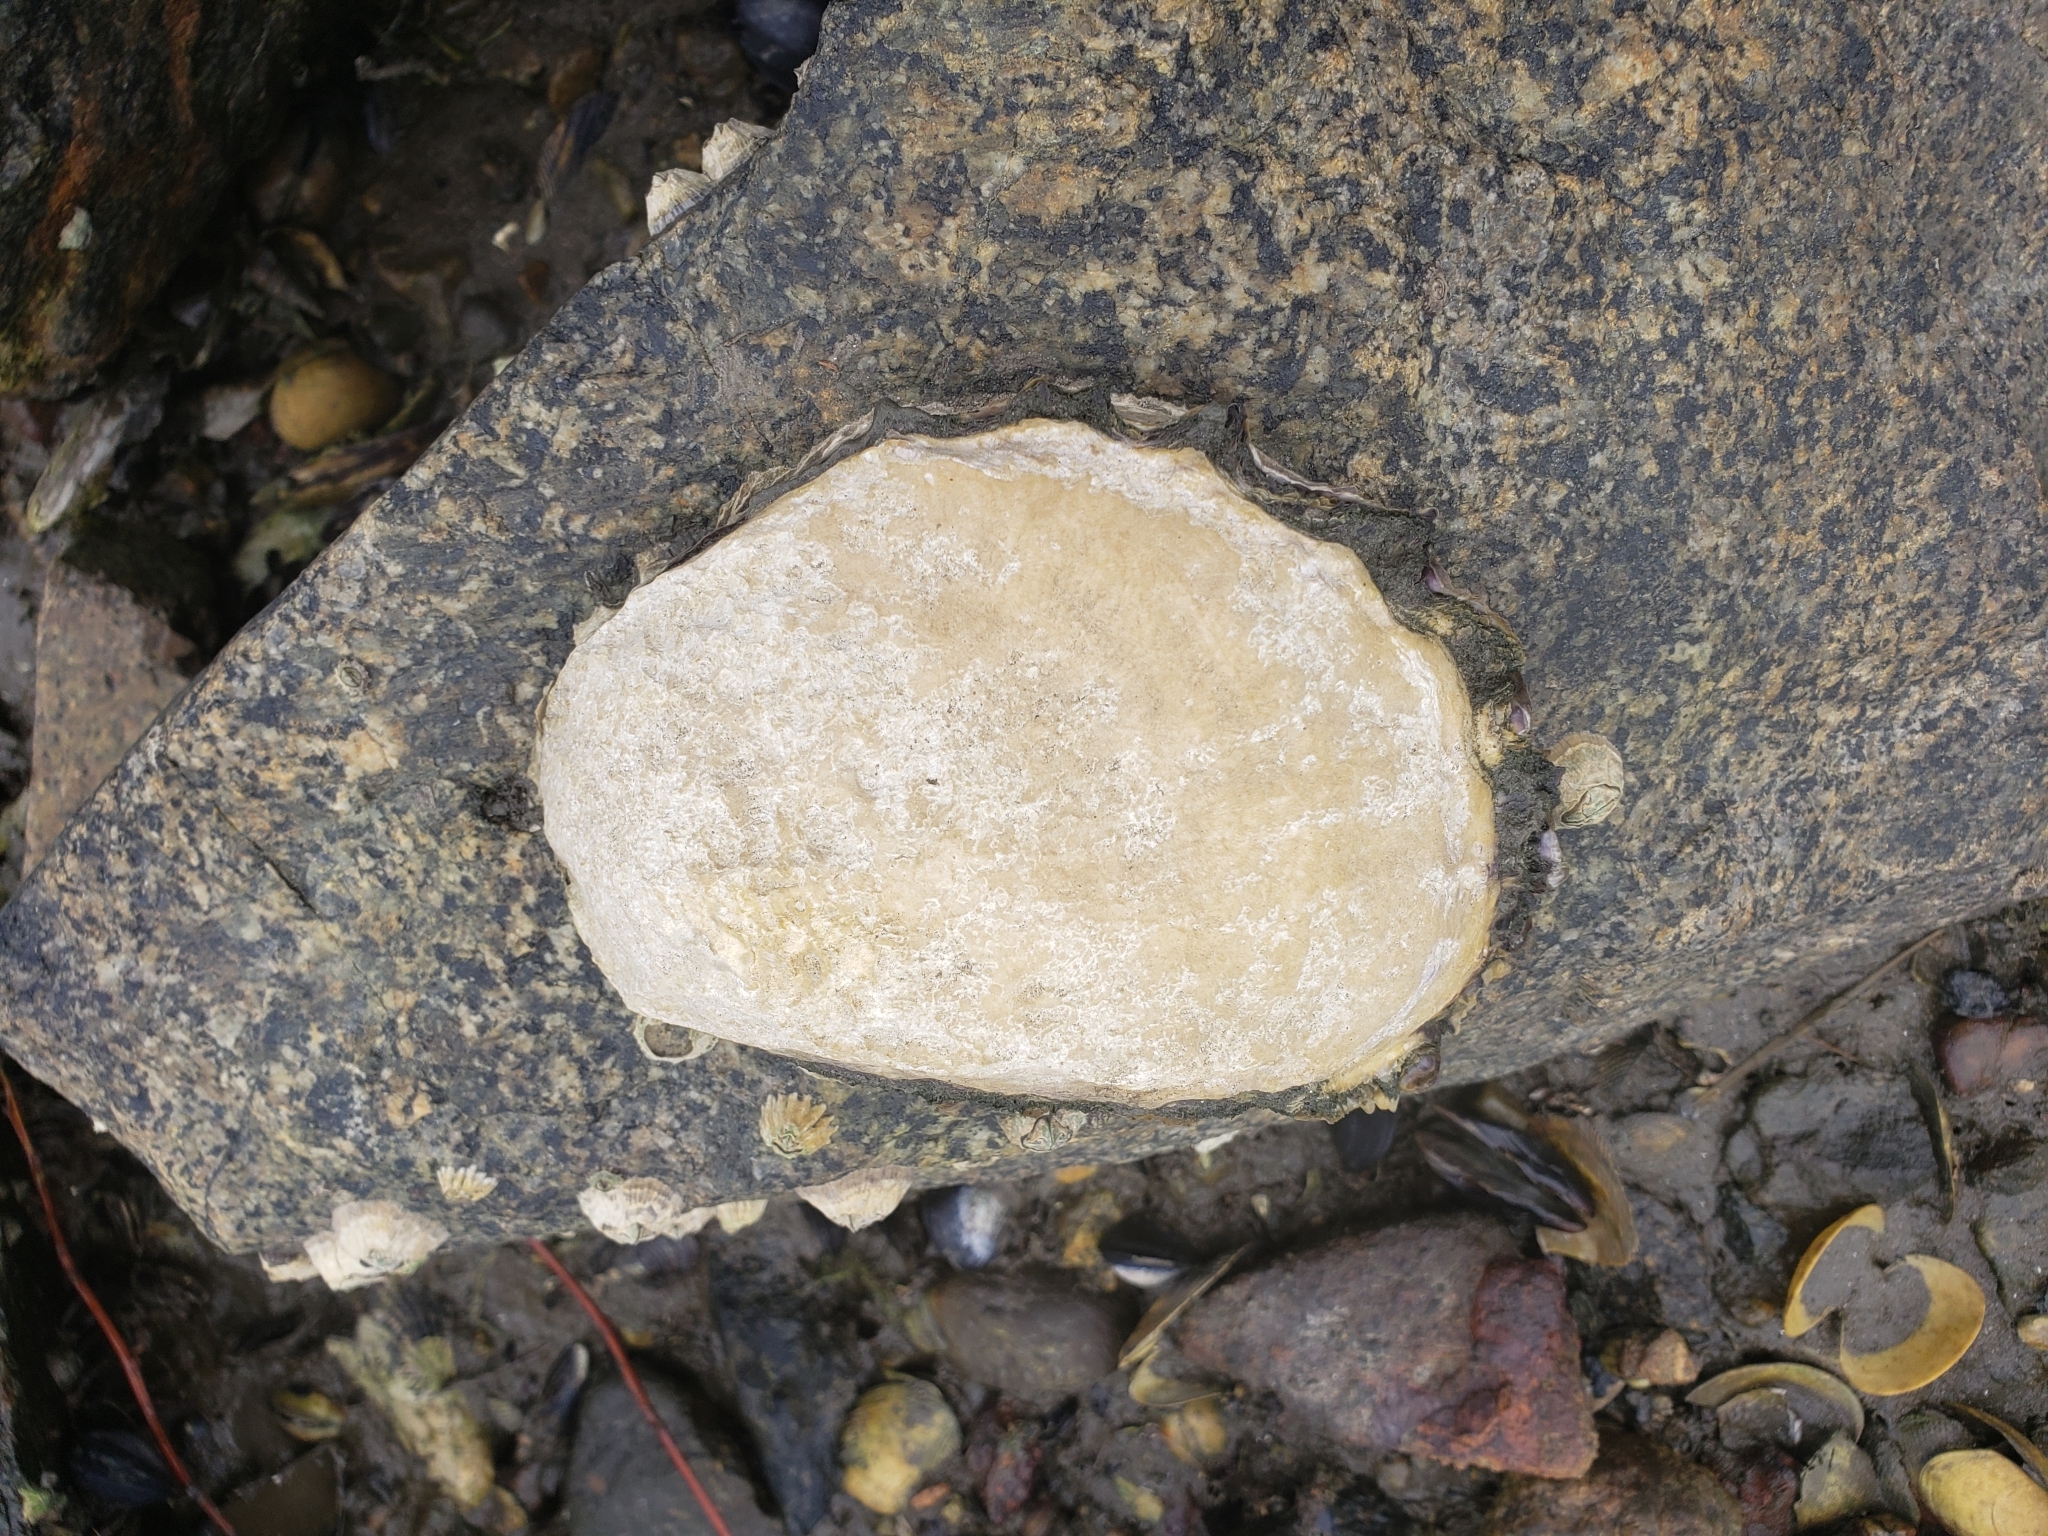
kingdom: Animalia
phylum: Mollusca
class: Bivalvia
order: Ostreida
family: Ostreidae
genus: Magallana
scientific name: Magallana gigas
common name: Pacific oyster
